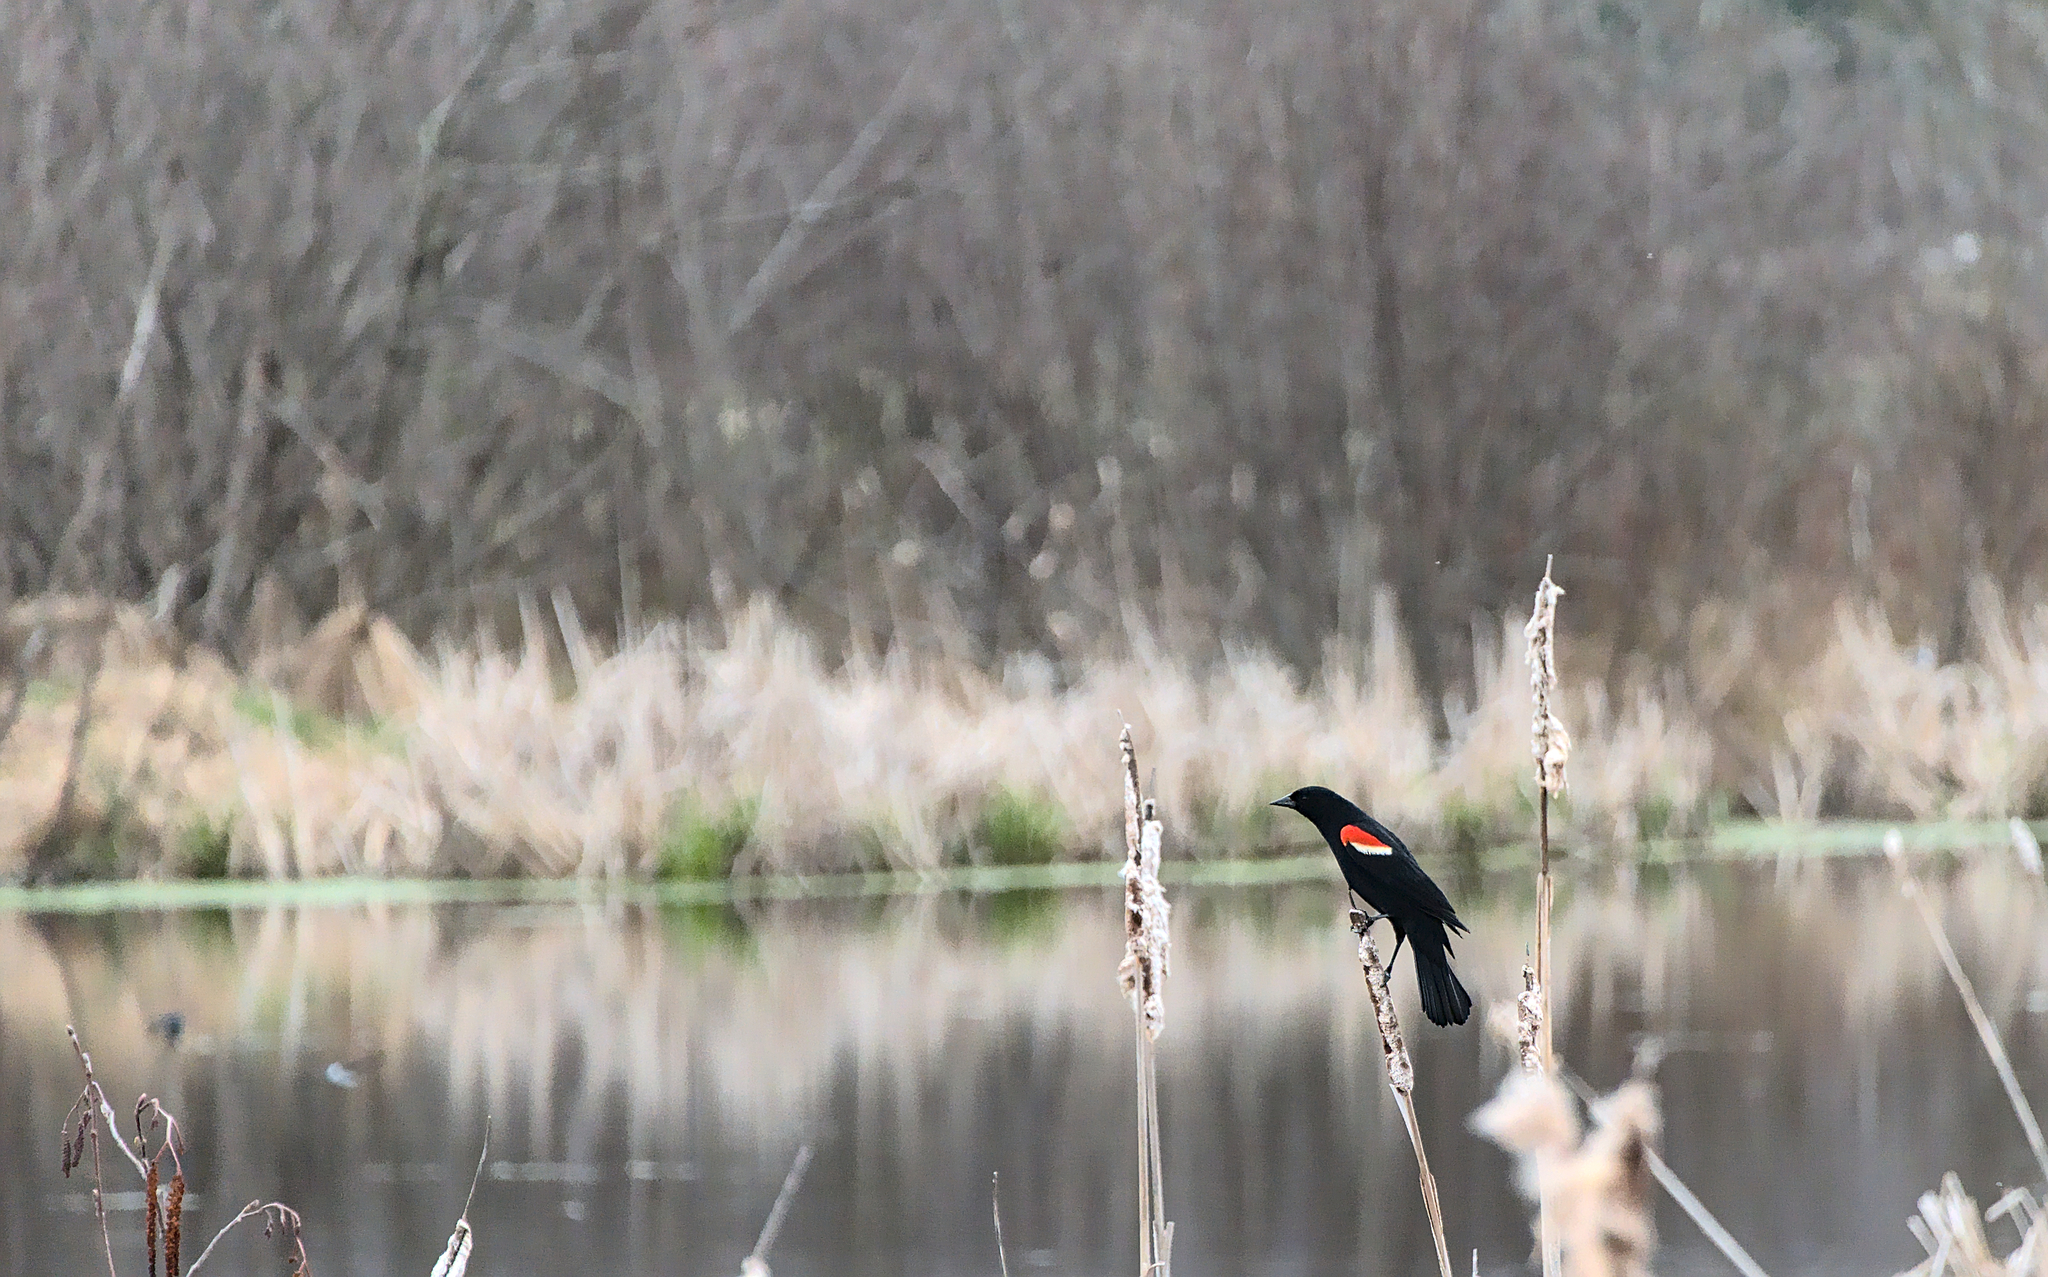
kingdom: Animalia
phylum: Chordata
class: Aves
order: Passeriformes
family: Icteridae
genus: Agelaius
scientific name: Agelaius phoeniceus
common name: Red-winged blackbird
